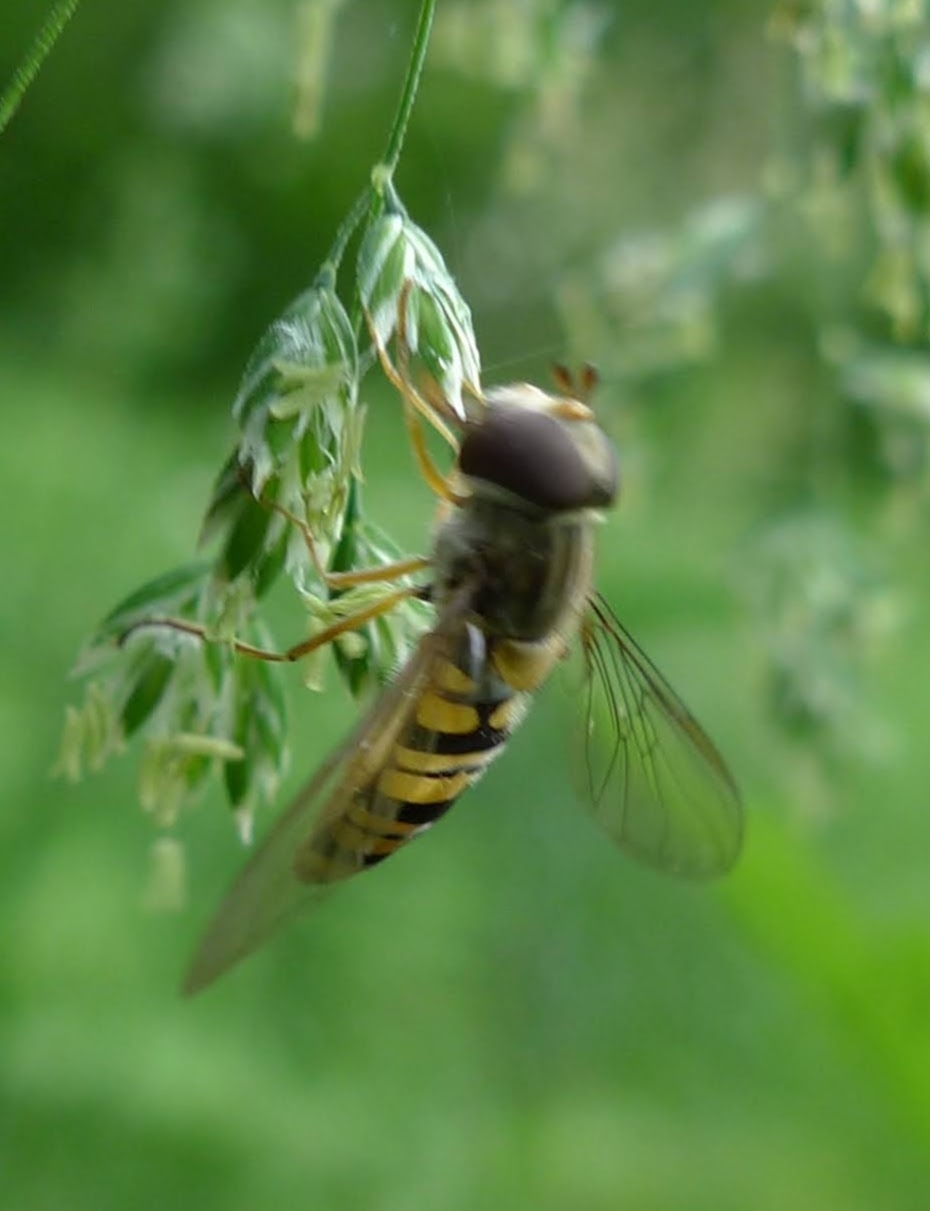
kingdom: Animalia
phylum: Arthropoda
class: Insecta
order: Diptera
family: Syrphidae
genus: Episyrphus
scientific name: Episyrphus balteatus
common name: Marmalade hoverfly
